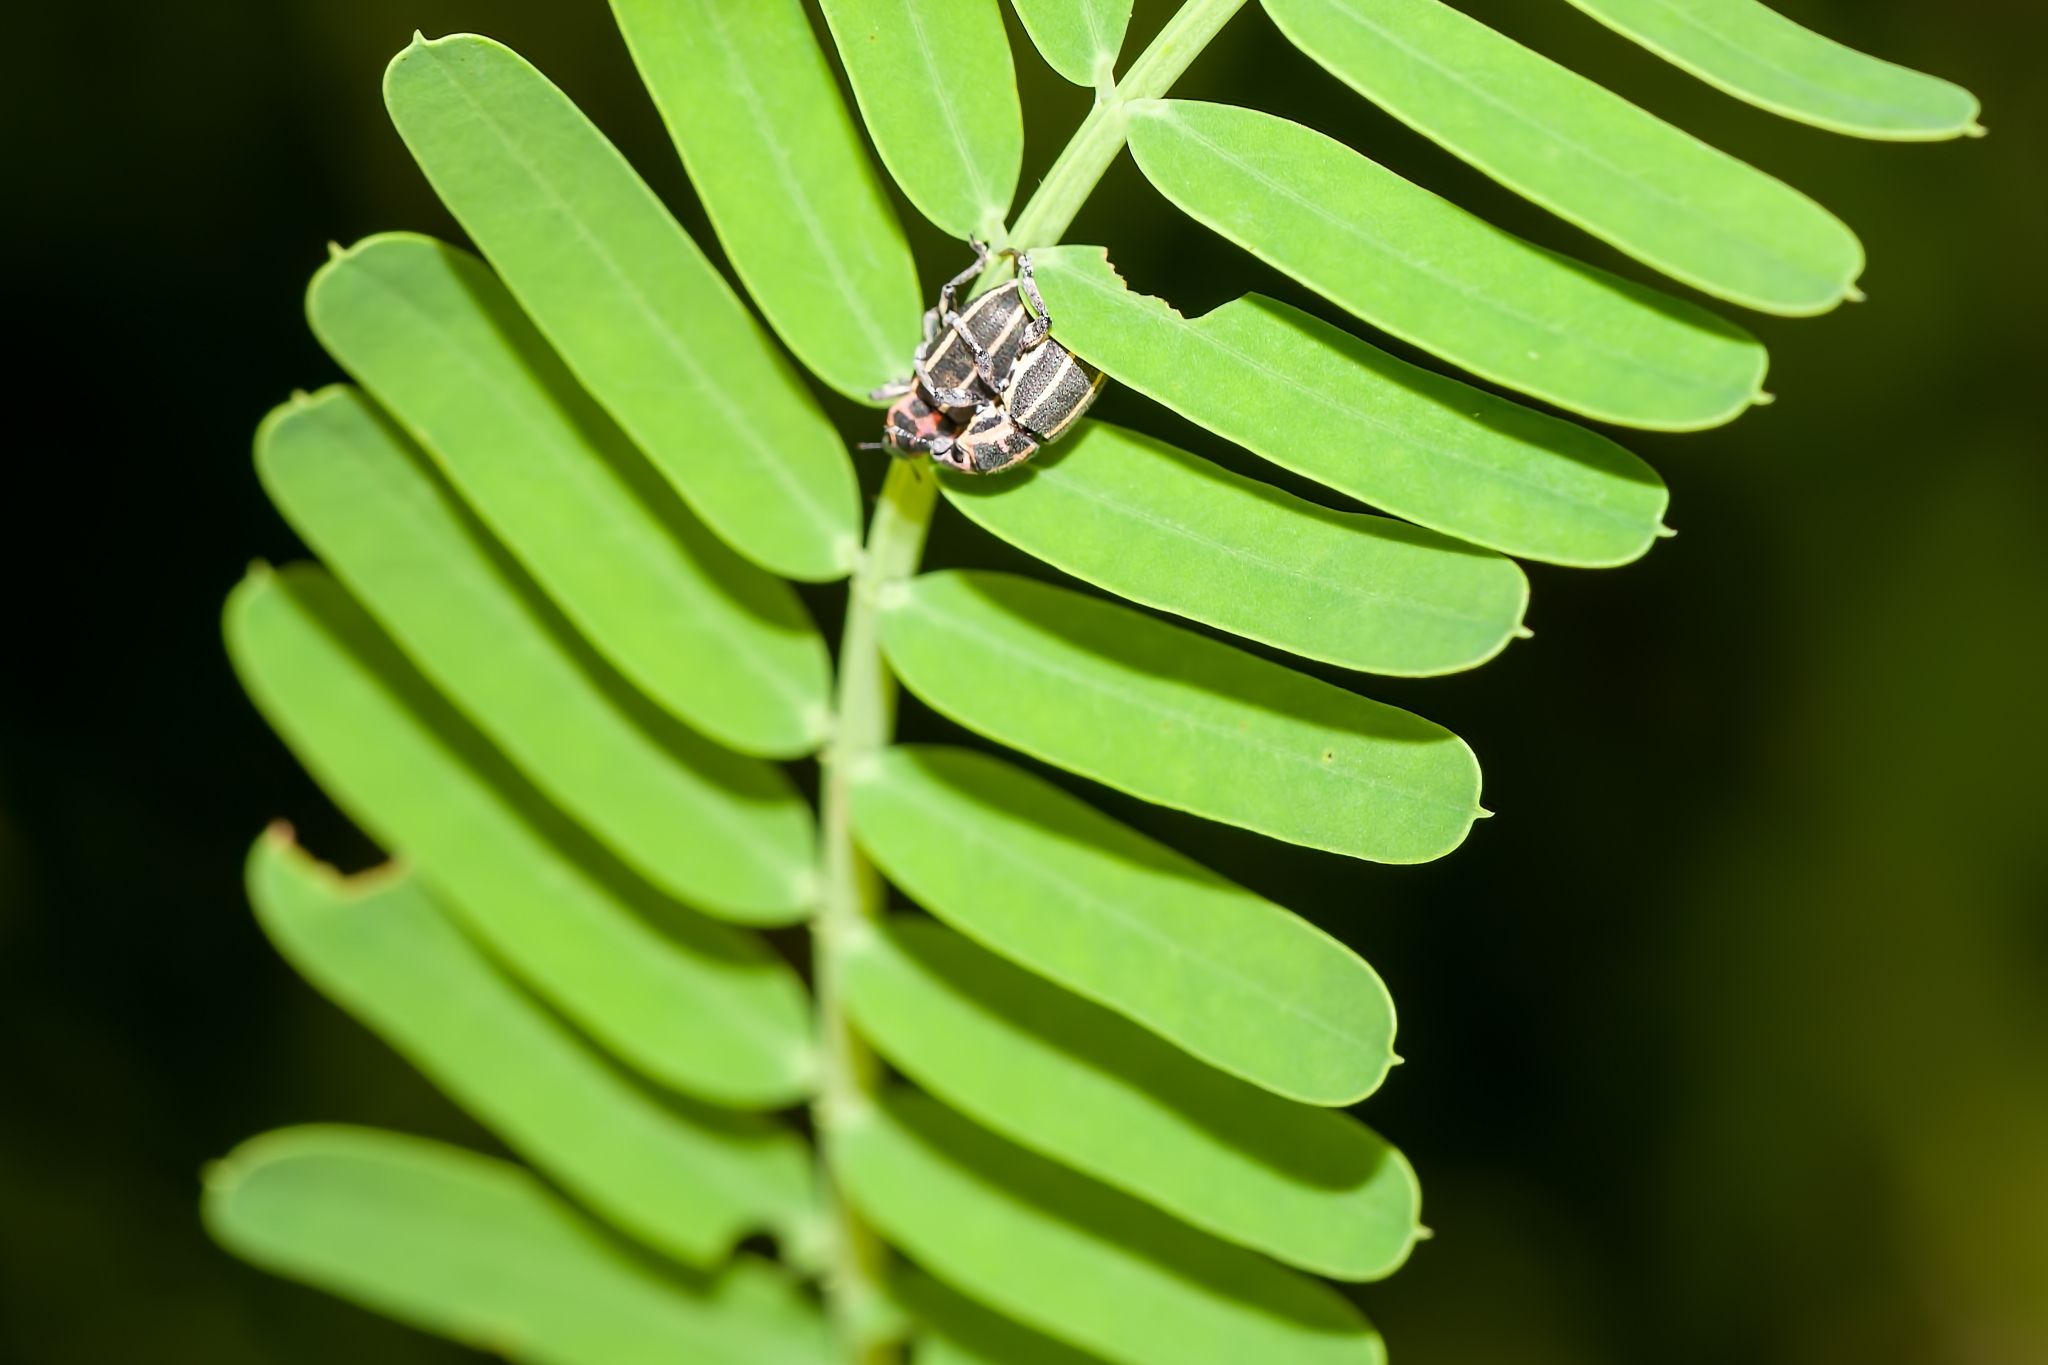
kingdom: Animalia
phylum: Arthropoda
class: Insecta
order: Coleoptera
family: Curculionidae
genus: Eudiagogus
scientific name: Eudiagogus maryae
